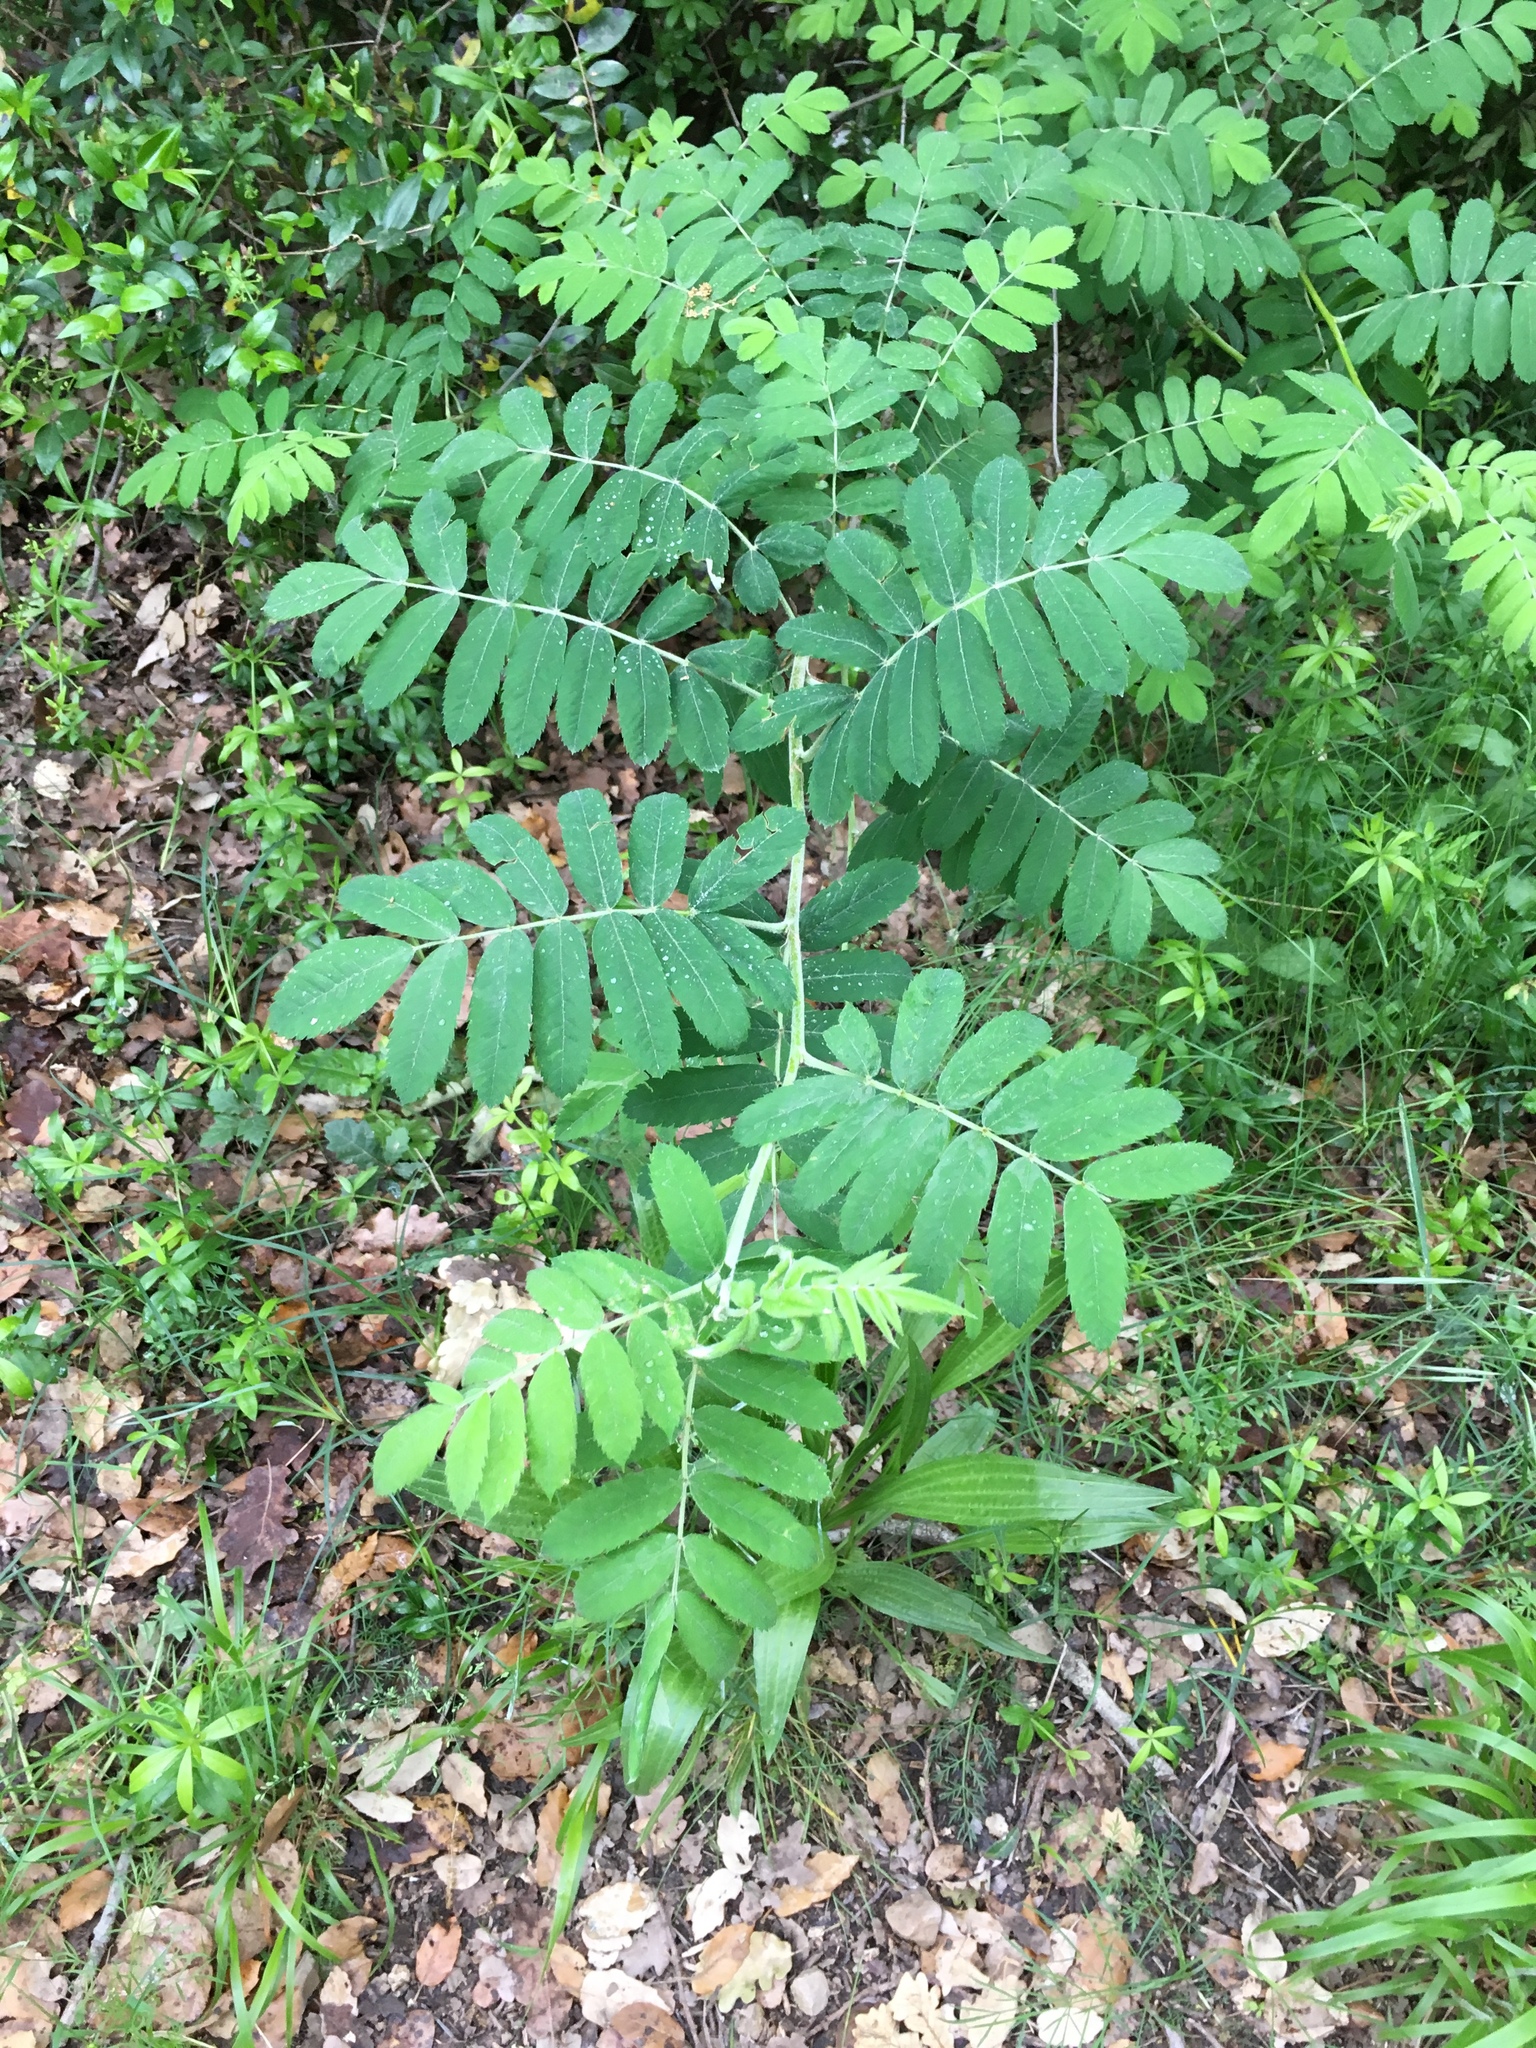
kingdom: Plantae
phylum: Tracheophyta
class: Magnoliopsida
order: Rosales
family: Rosaceae
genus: Sorbus
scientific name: Sorbus aucuparia
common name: Rowan
